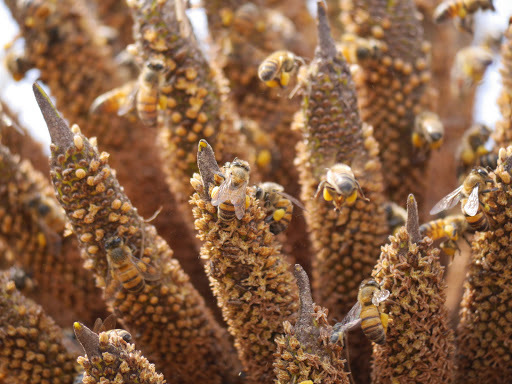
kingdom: Animalia
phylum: Arthropoda
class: Insecta
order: Hymenoptera
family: Apidae
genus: Apis
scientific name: Apis mellifera
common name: Honey bee
